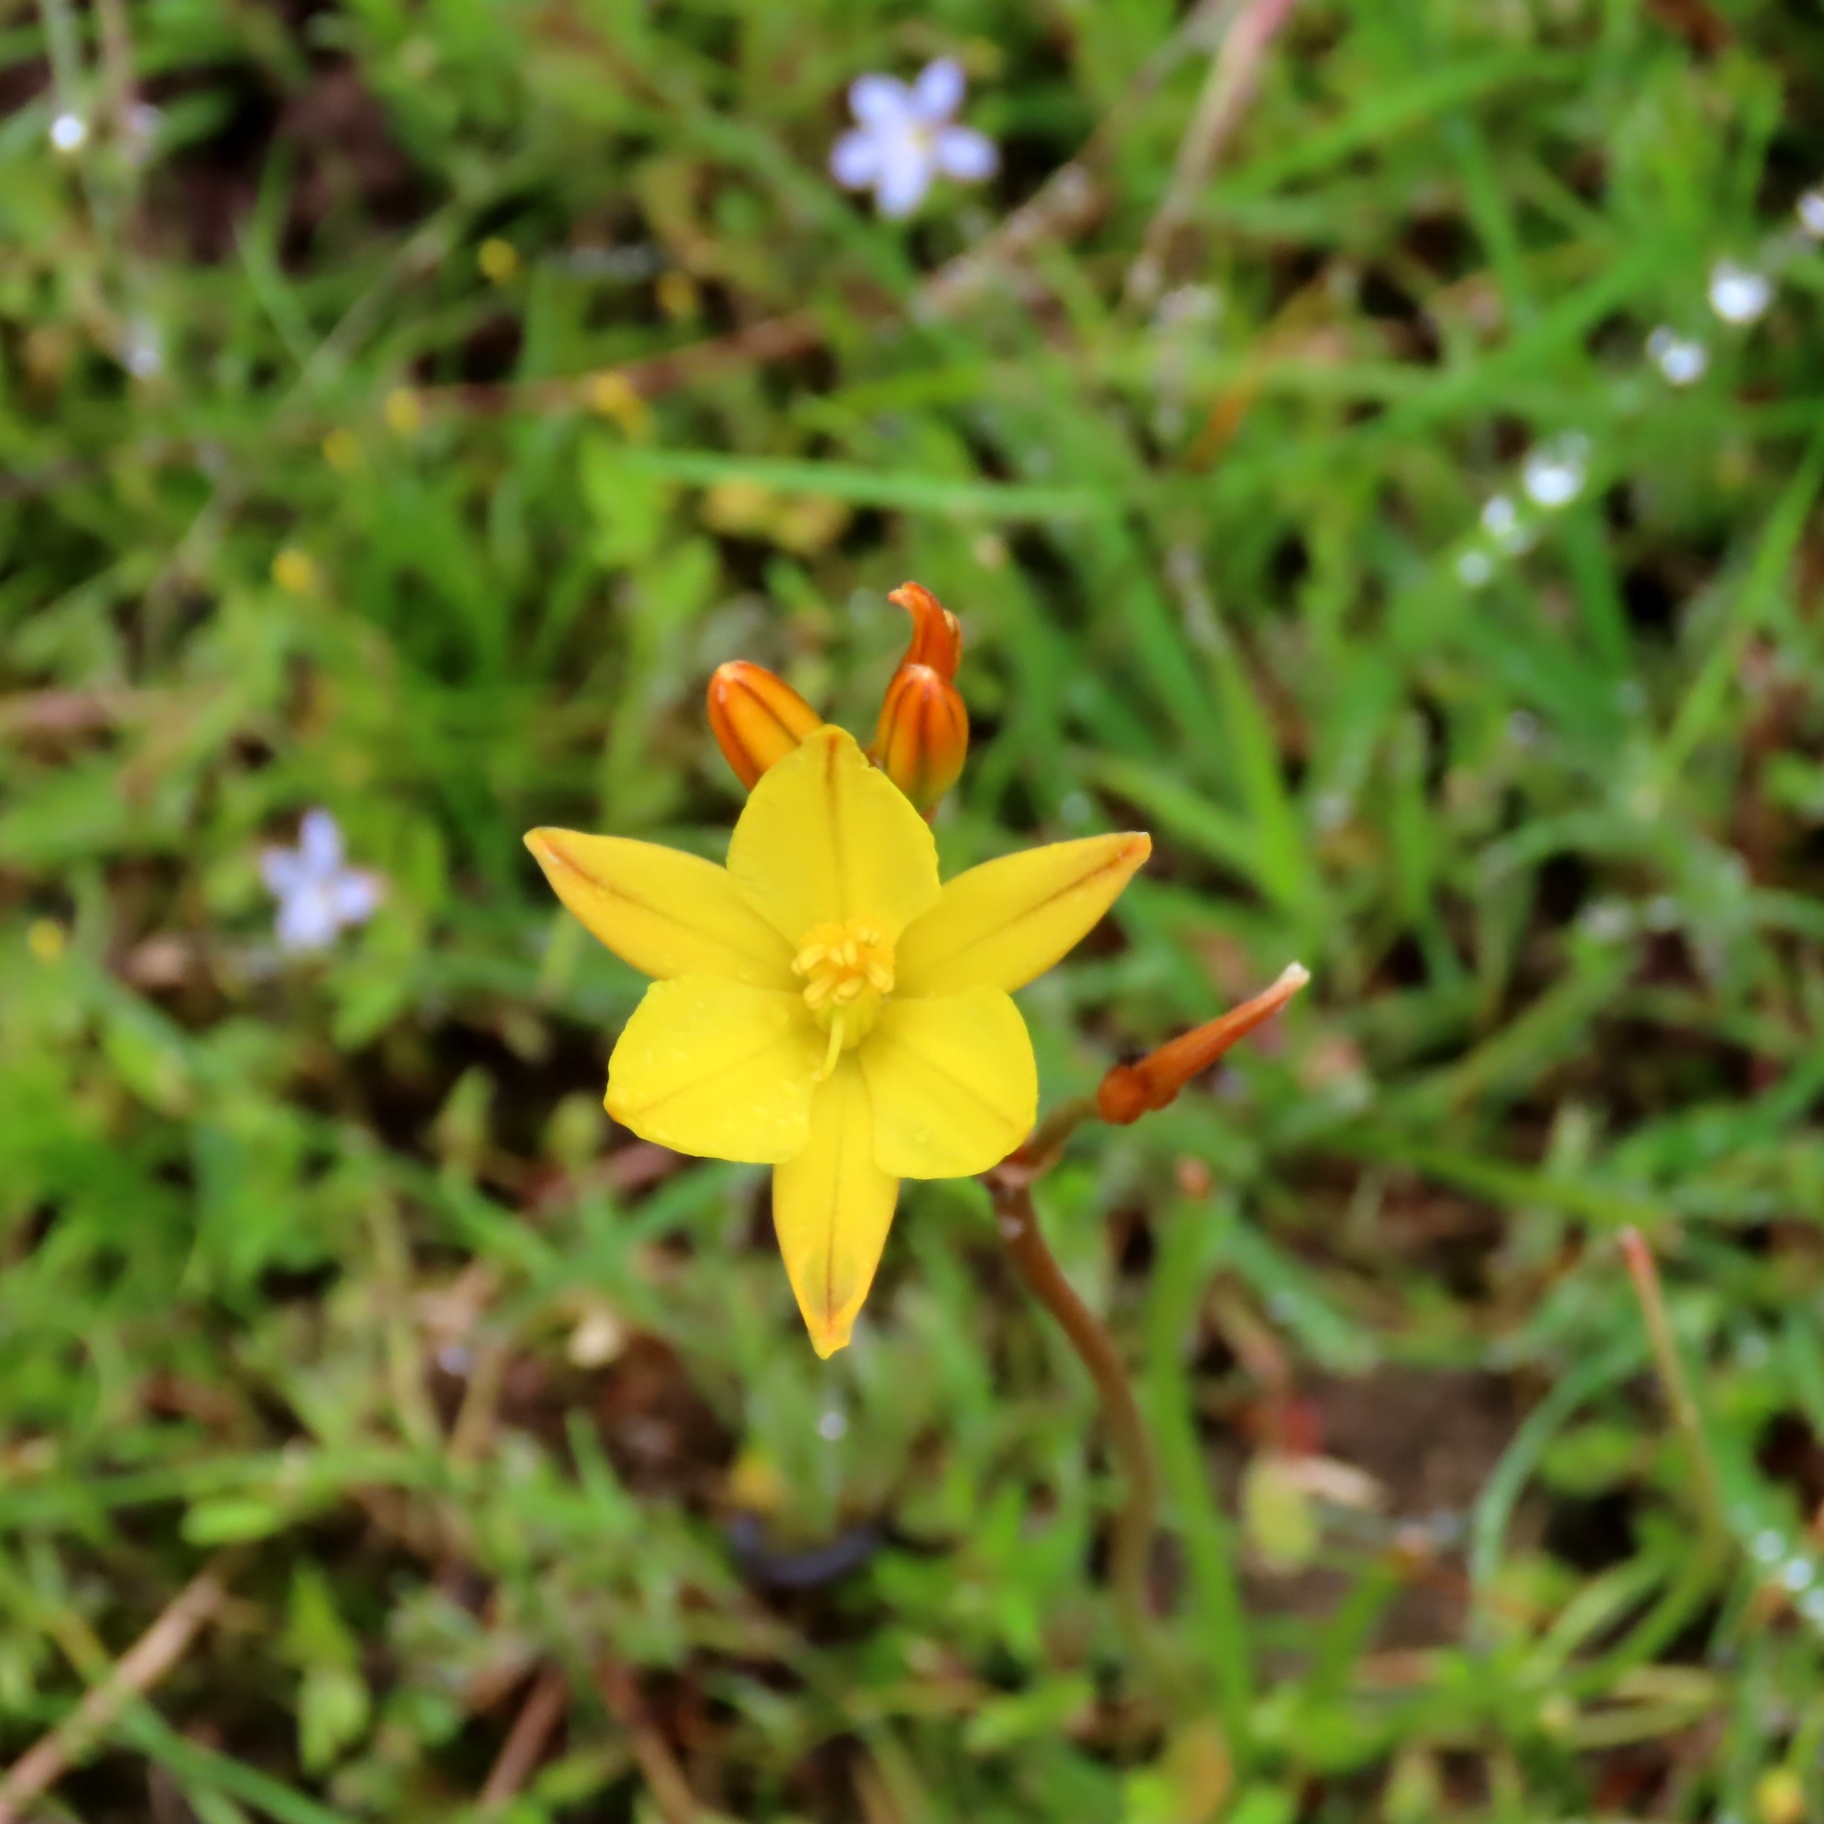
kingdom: Plantae
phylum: Tracheophyta
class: Liliopsida
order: Asparagales
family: Asphodelaceae
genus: Bulbine
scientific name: Bulbine bulbosa
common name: Golden-lily
